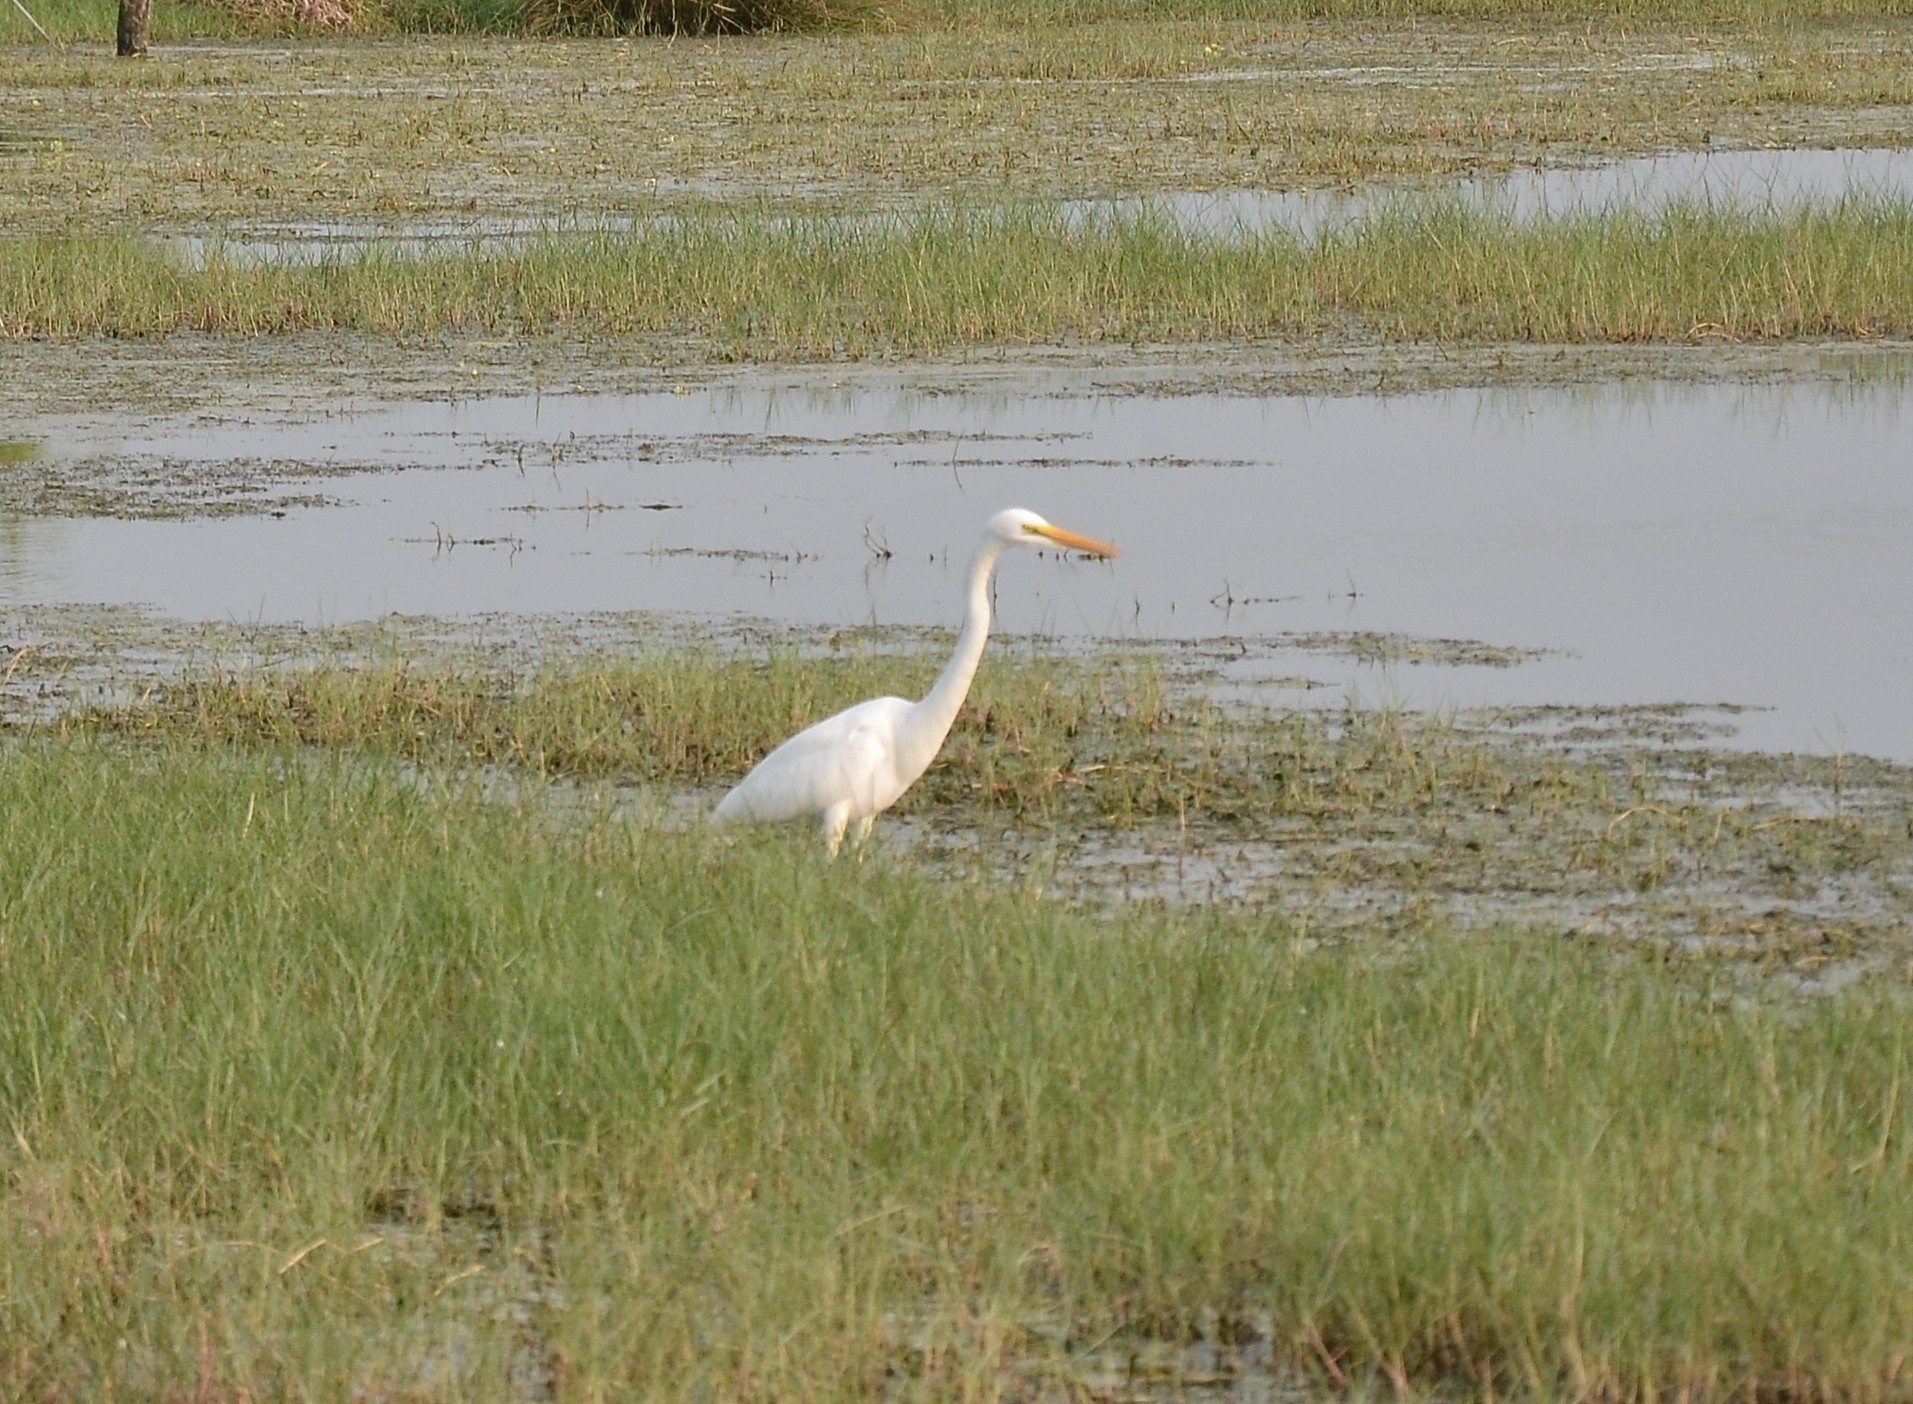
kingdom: Animalia
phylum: Chordata
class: Aves
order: Pelecaniformes
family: Ardeidae
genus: Ardea
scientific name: Ardea alba
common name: Great egret
